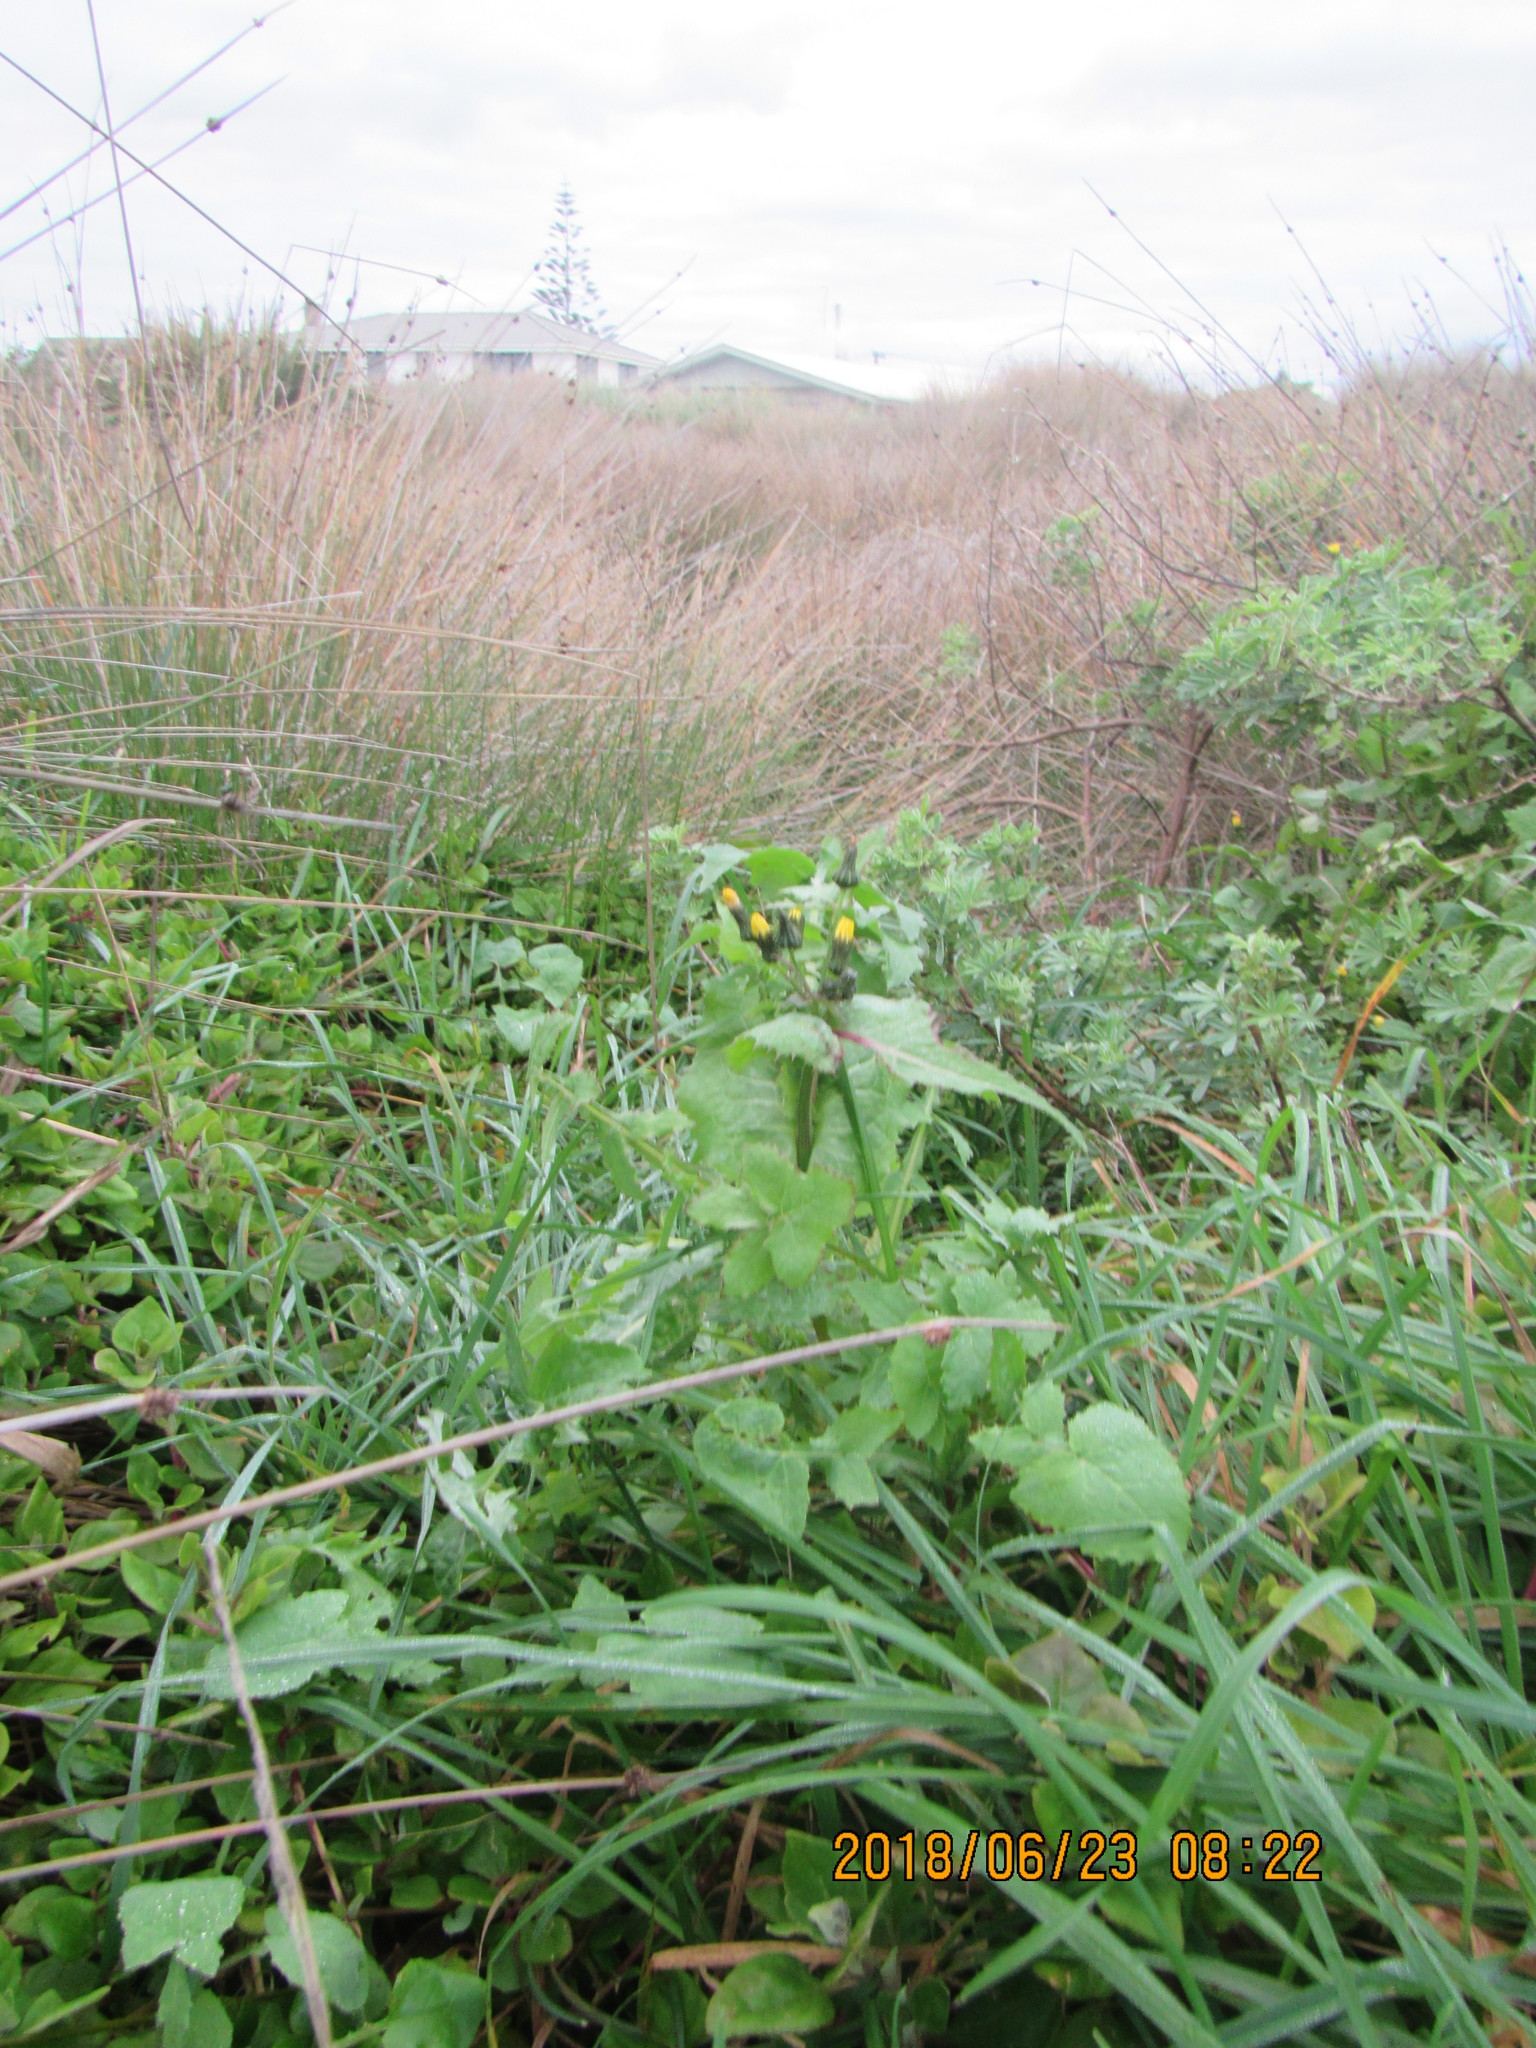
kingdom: Plantae
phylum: Tracheophyta
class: Magnoliopsida
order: Asterales
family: Asteraceae
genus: Sonchus
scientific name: Sonchus oleraceus
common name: Common sowthistle
